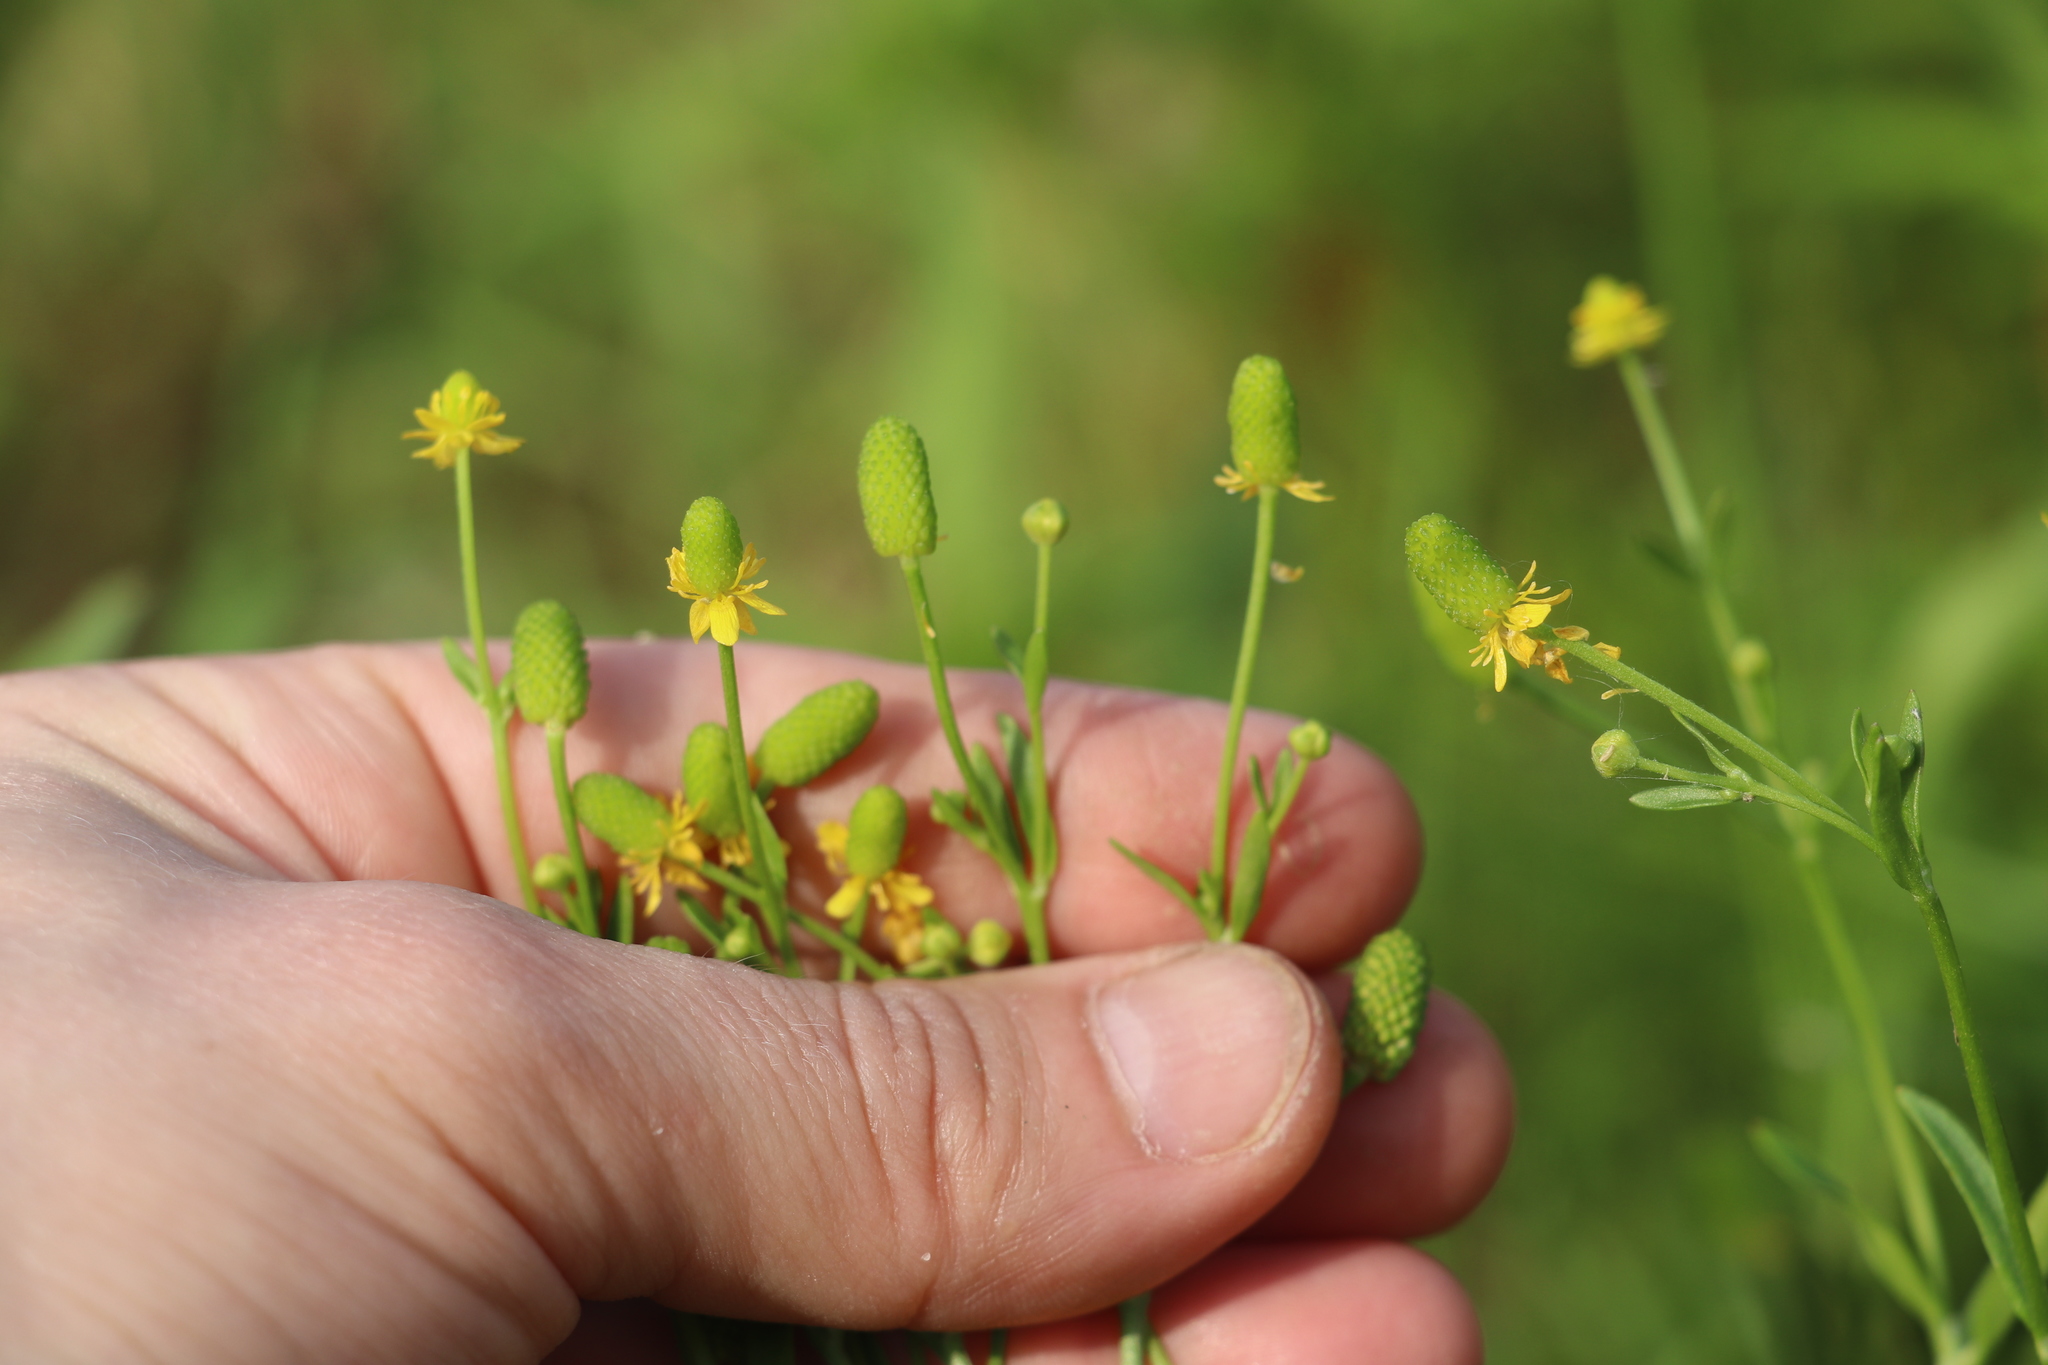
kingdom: Plantae
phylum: Tracheophyta
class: Magnoliopsida
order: Ranunculales
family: Ranunculaceae
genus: Ranunculus
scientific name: Ranunculus sceleratus
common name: Celery-leaved buttercup
